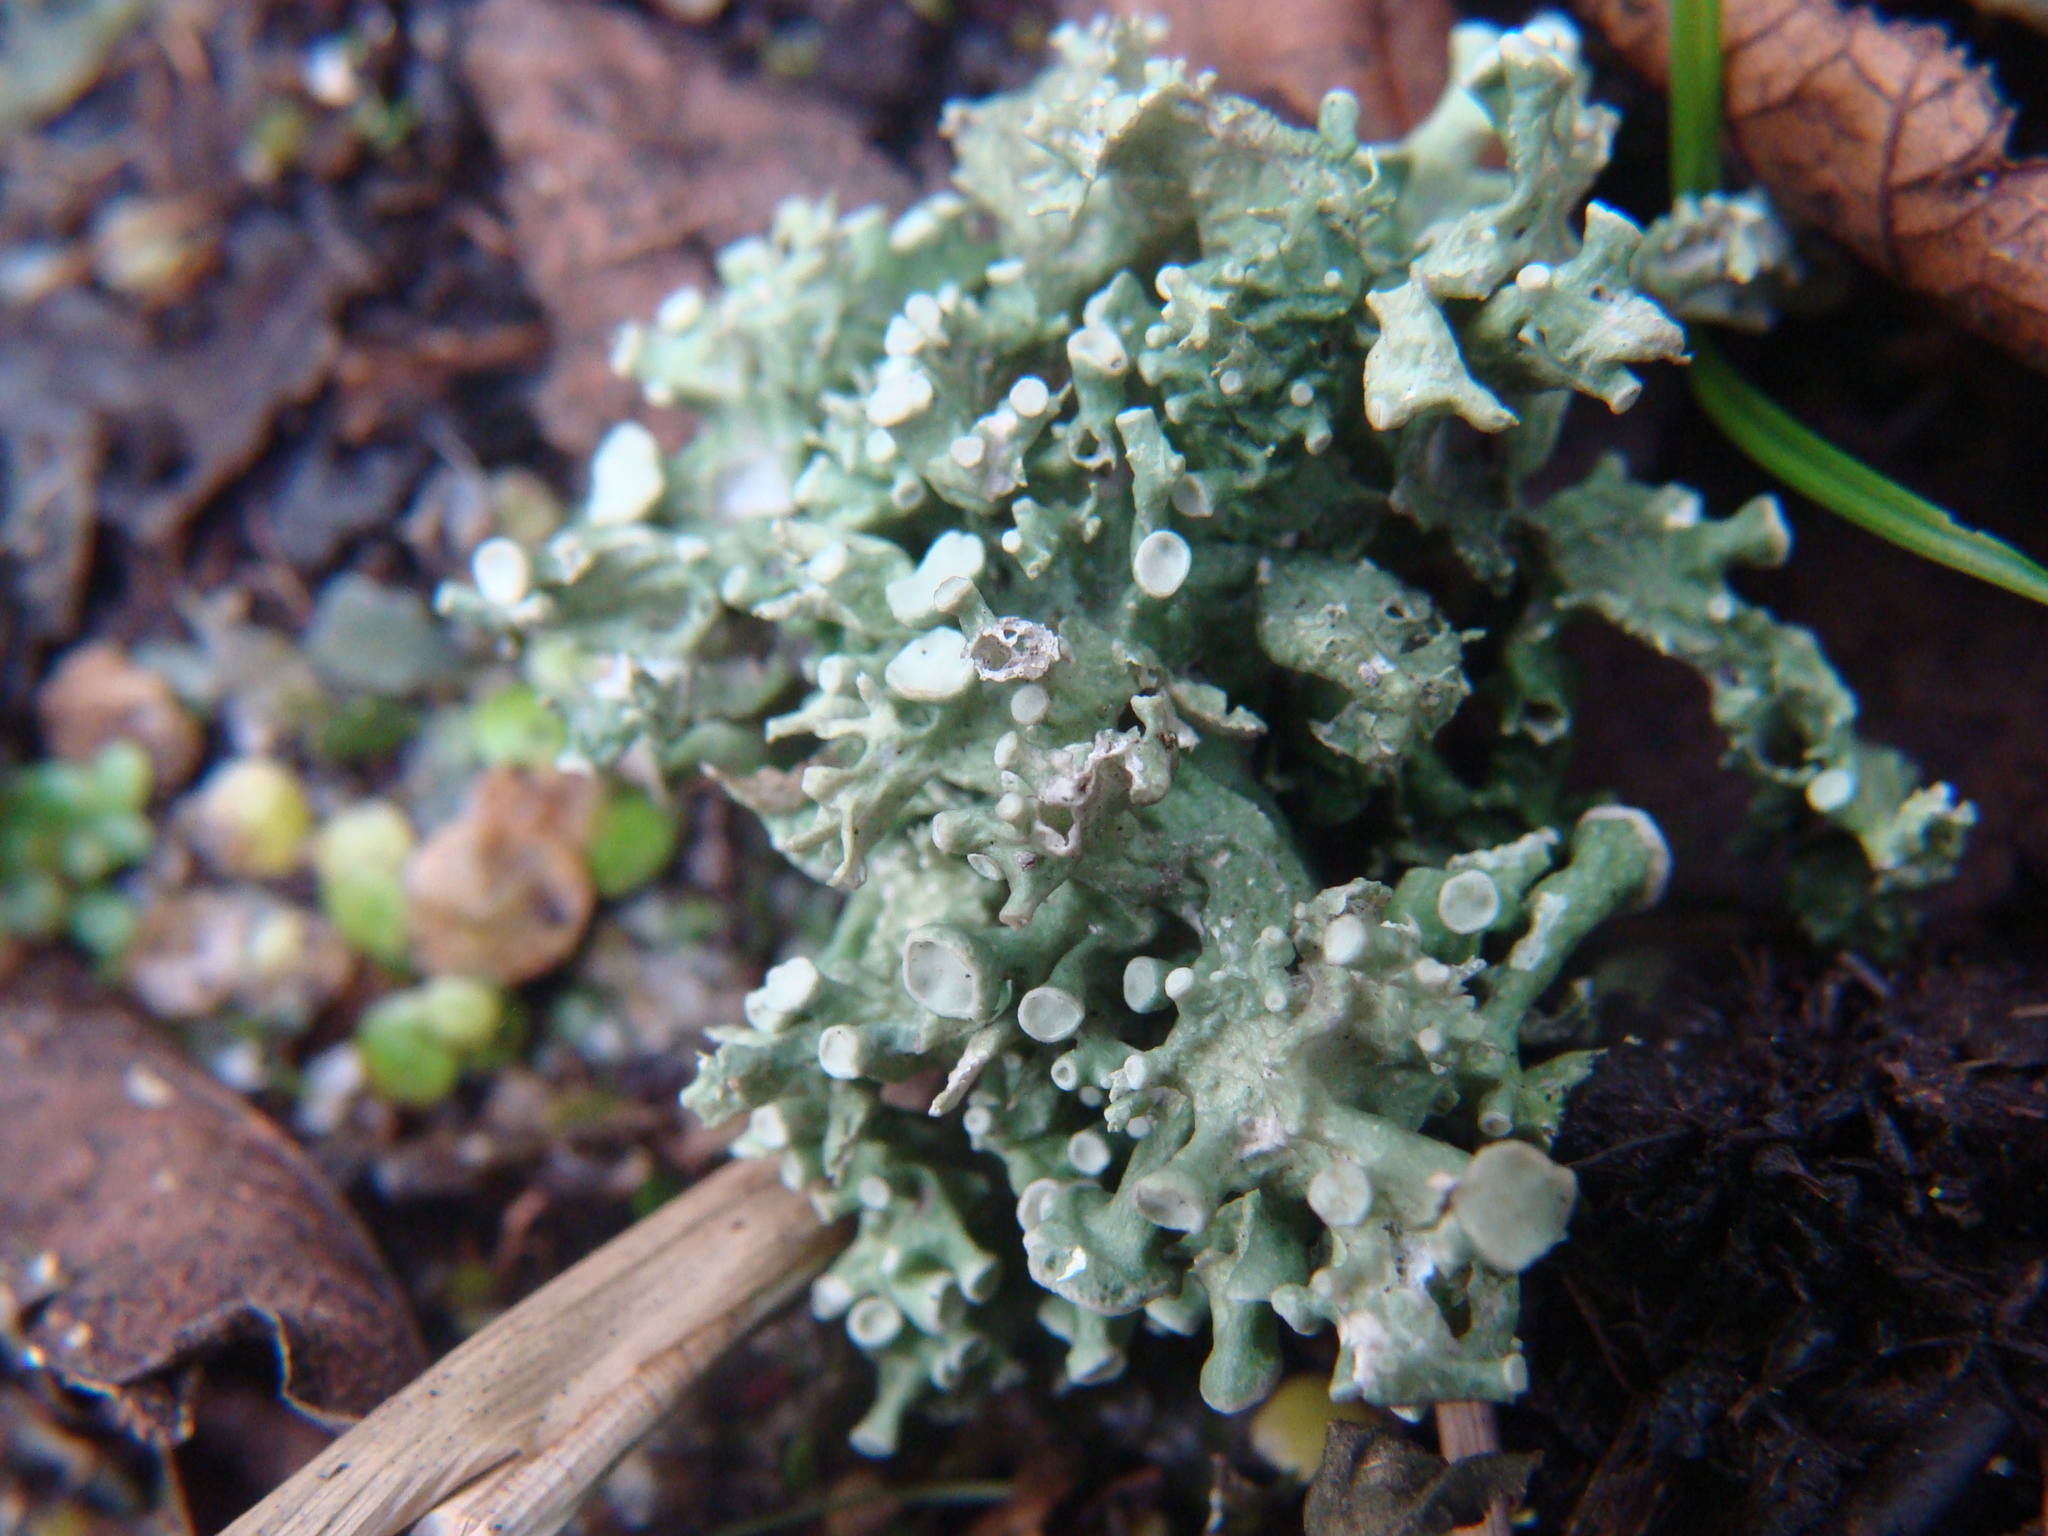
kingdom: Fungi
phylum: Ascomycota
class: Lecanoromycetes
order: Lecanorales
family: Ramalinaceae
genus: Ramalina
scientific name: Ramalina fastigiata
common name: Dotted ribbon lichen
